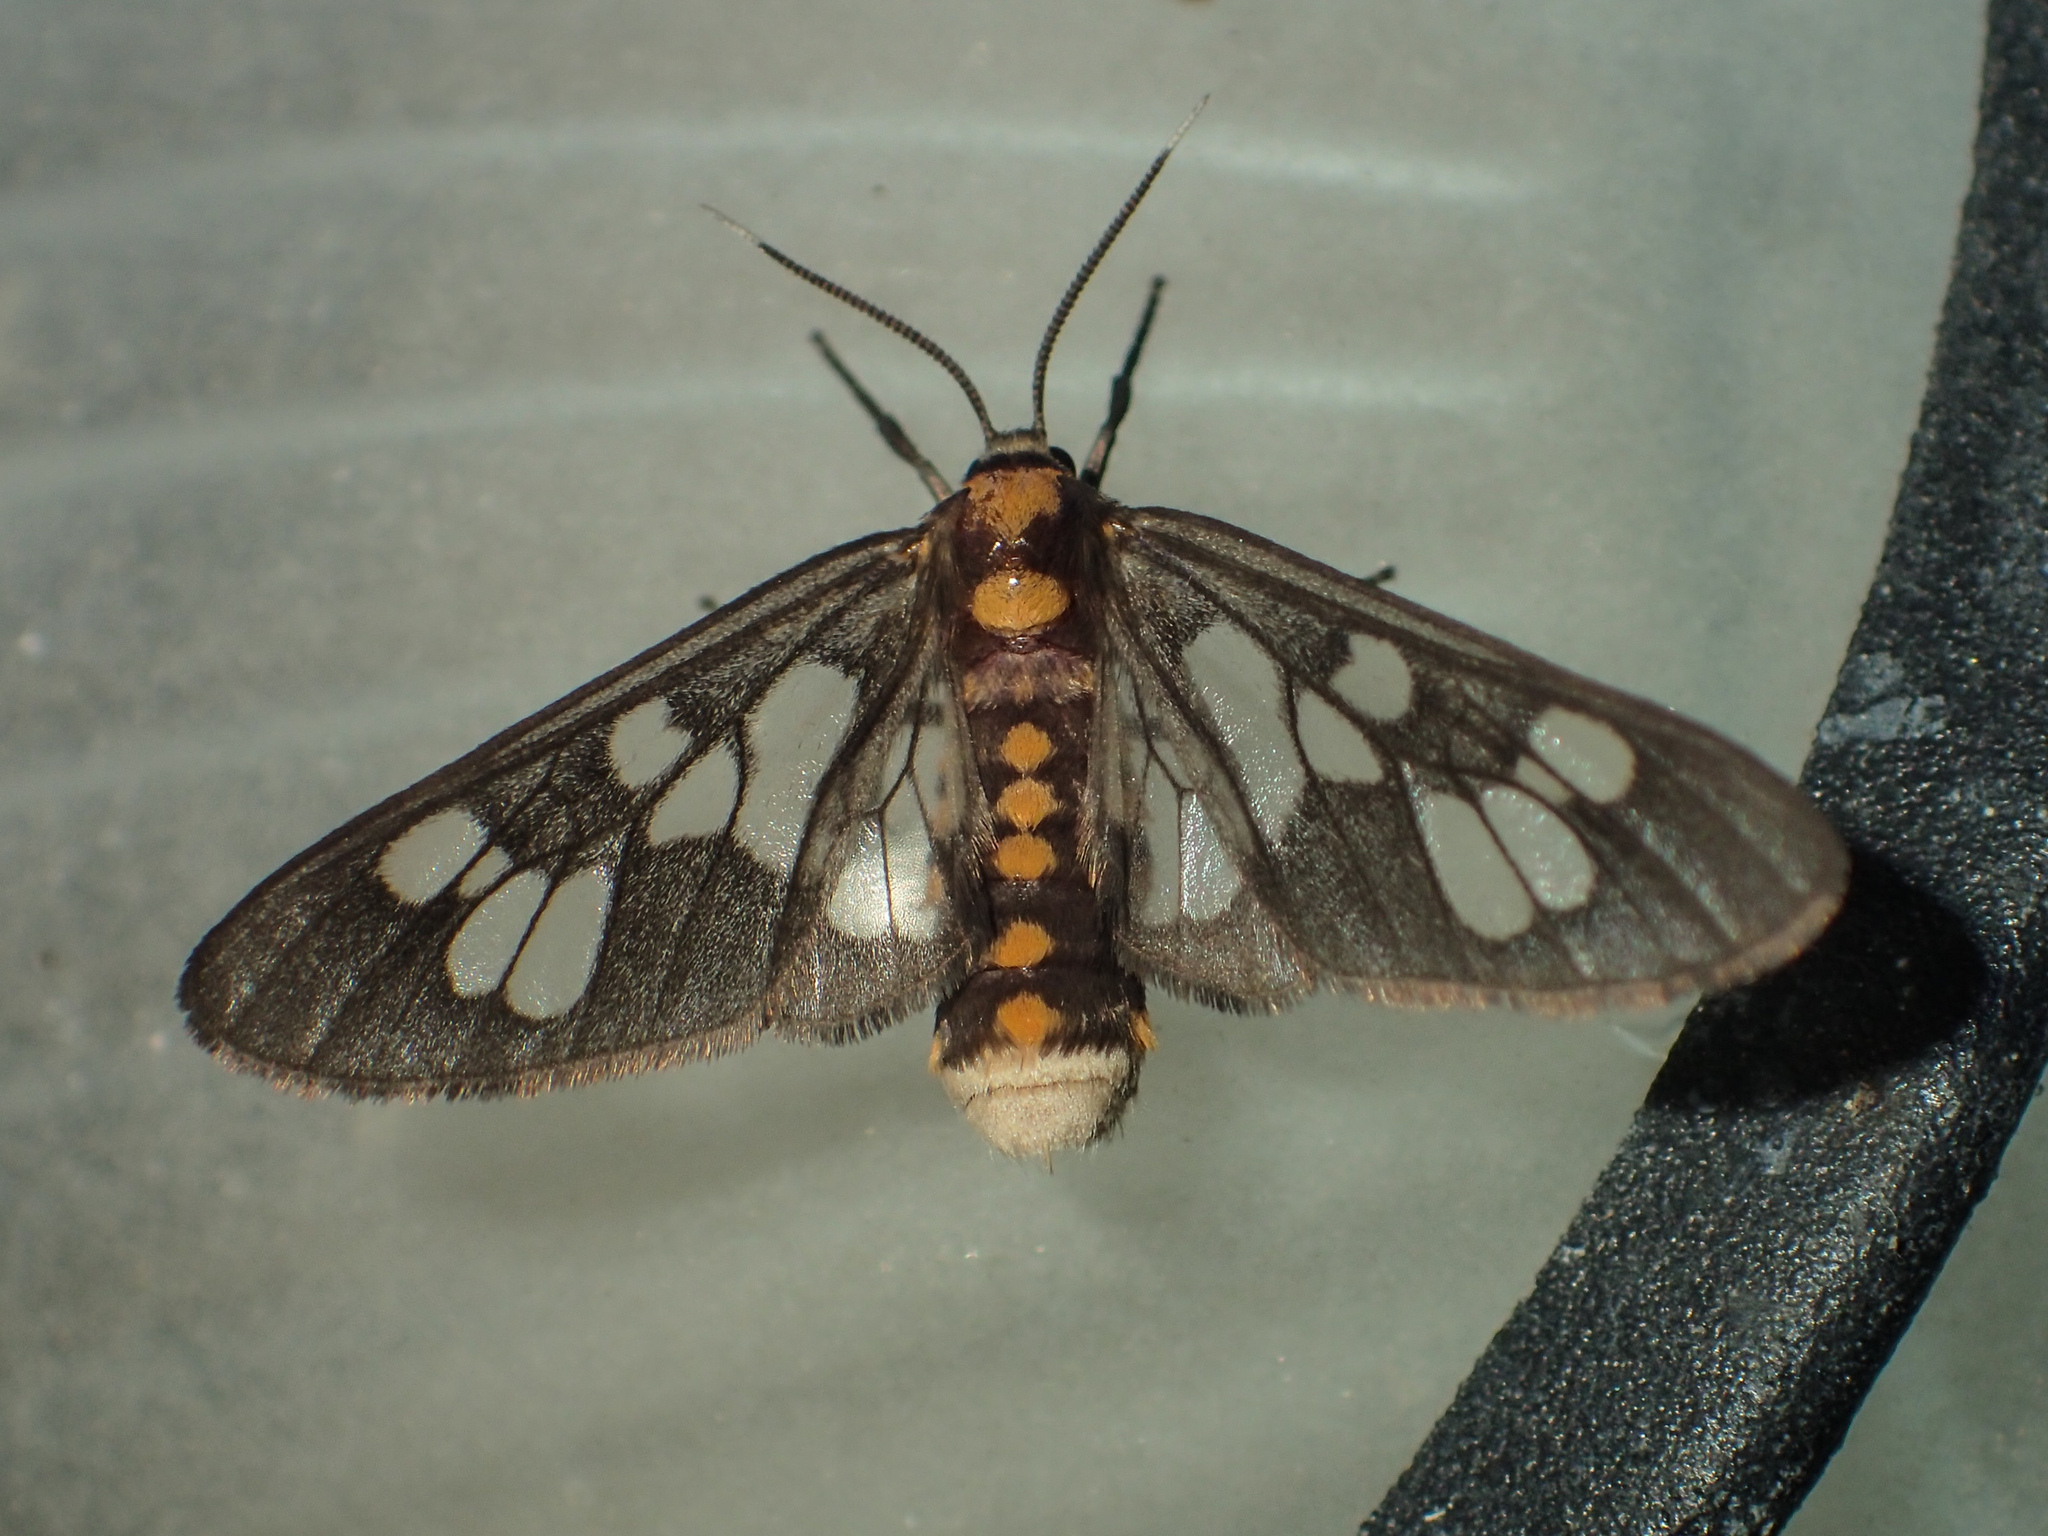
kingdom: Animalia
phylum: Arthropoda
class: Insecta
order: Lepidoptera
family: Erebidae
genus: Eressa
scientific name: Eressa confinis
